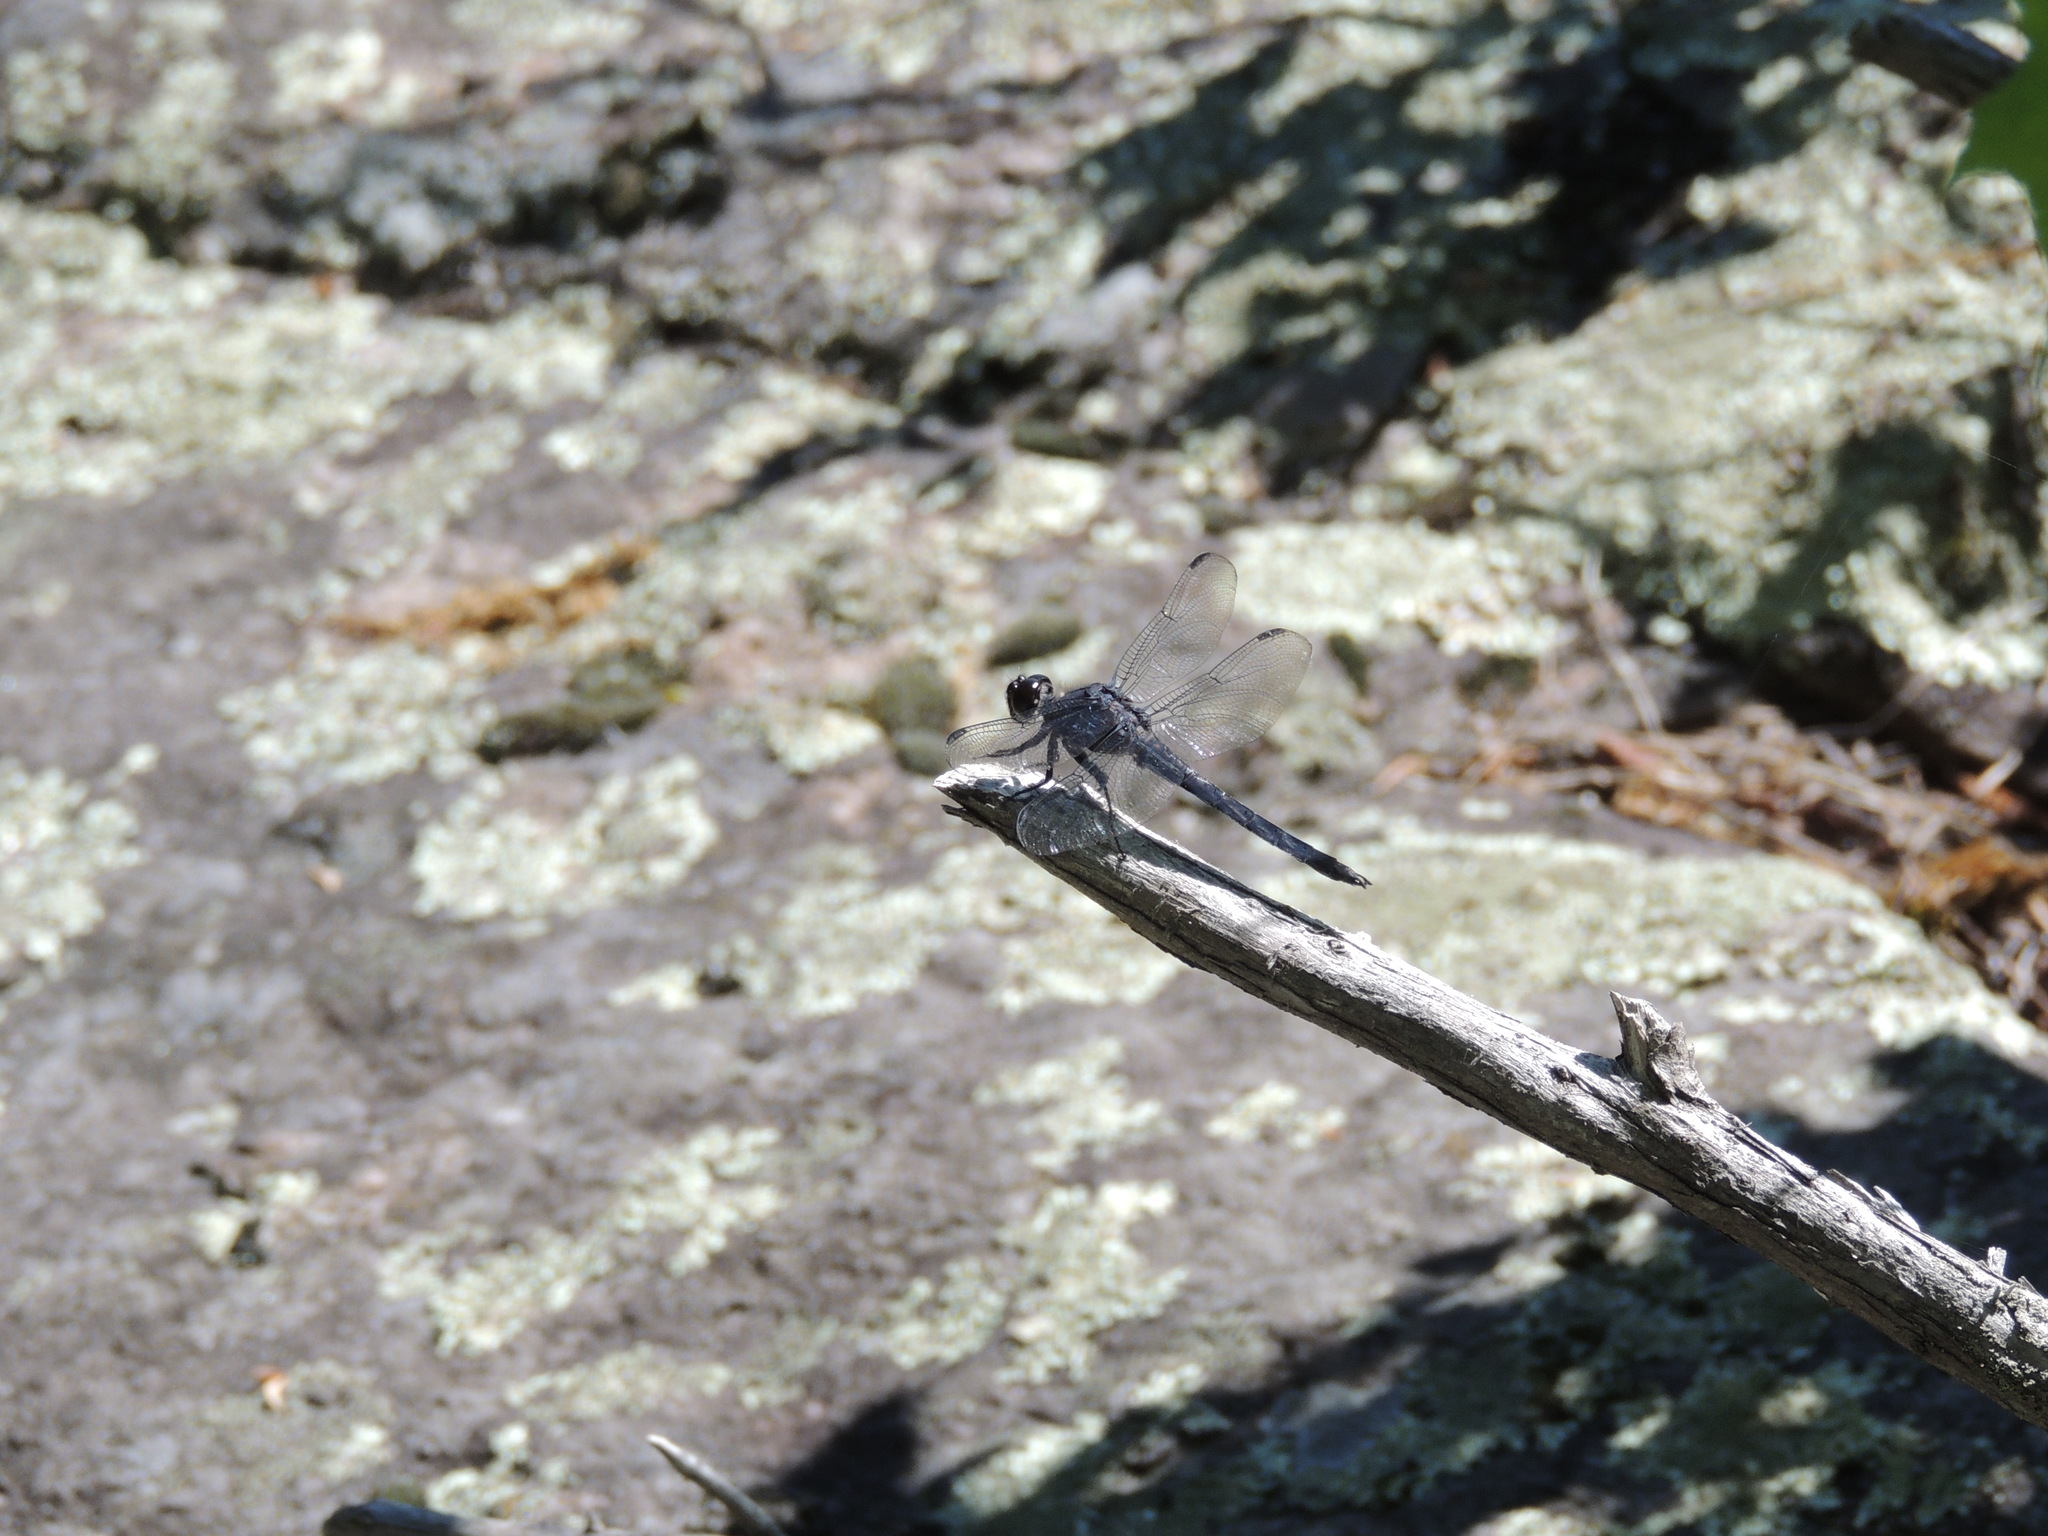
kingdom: Animalia
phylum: Arthropoda
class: Insecta
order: Odonata
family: Libellulidae
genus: Libellula
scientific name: Libellula incesta
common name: Slaty skimmer
